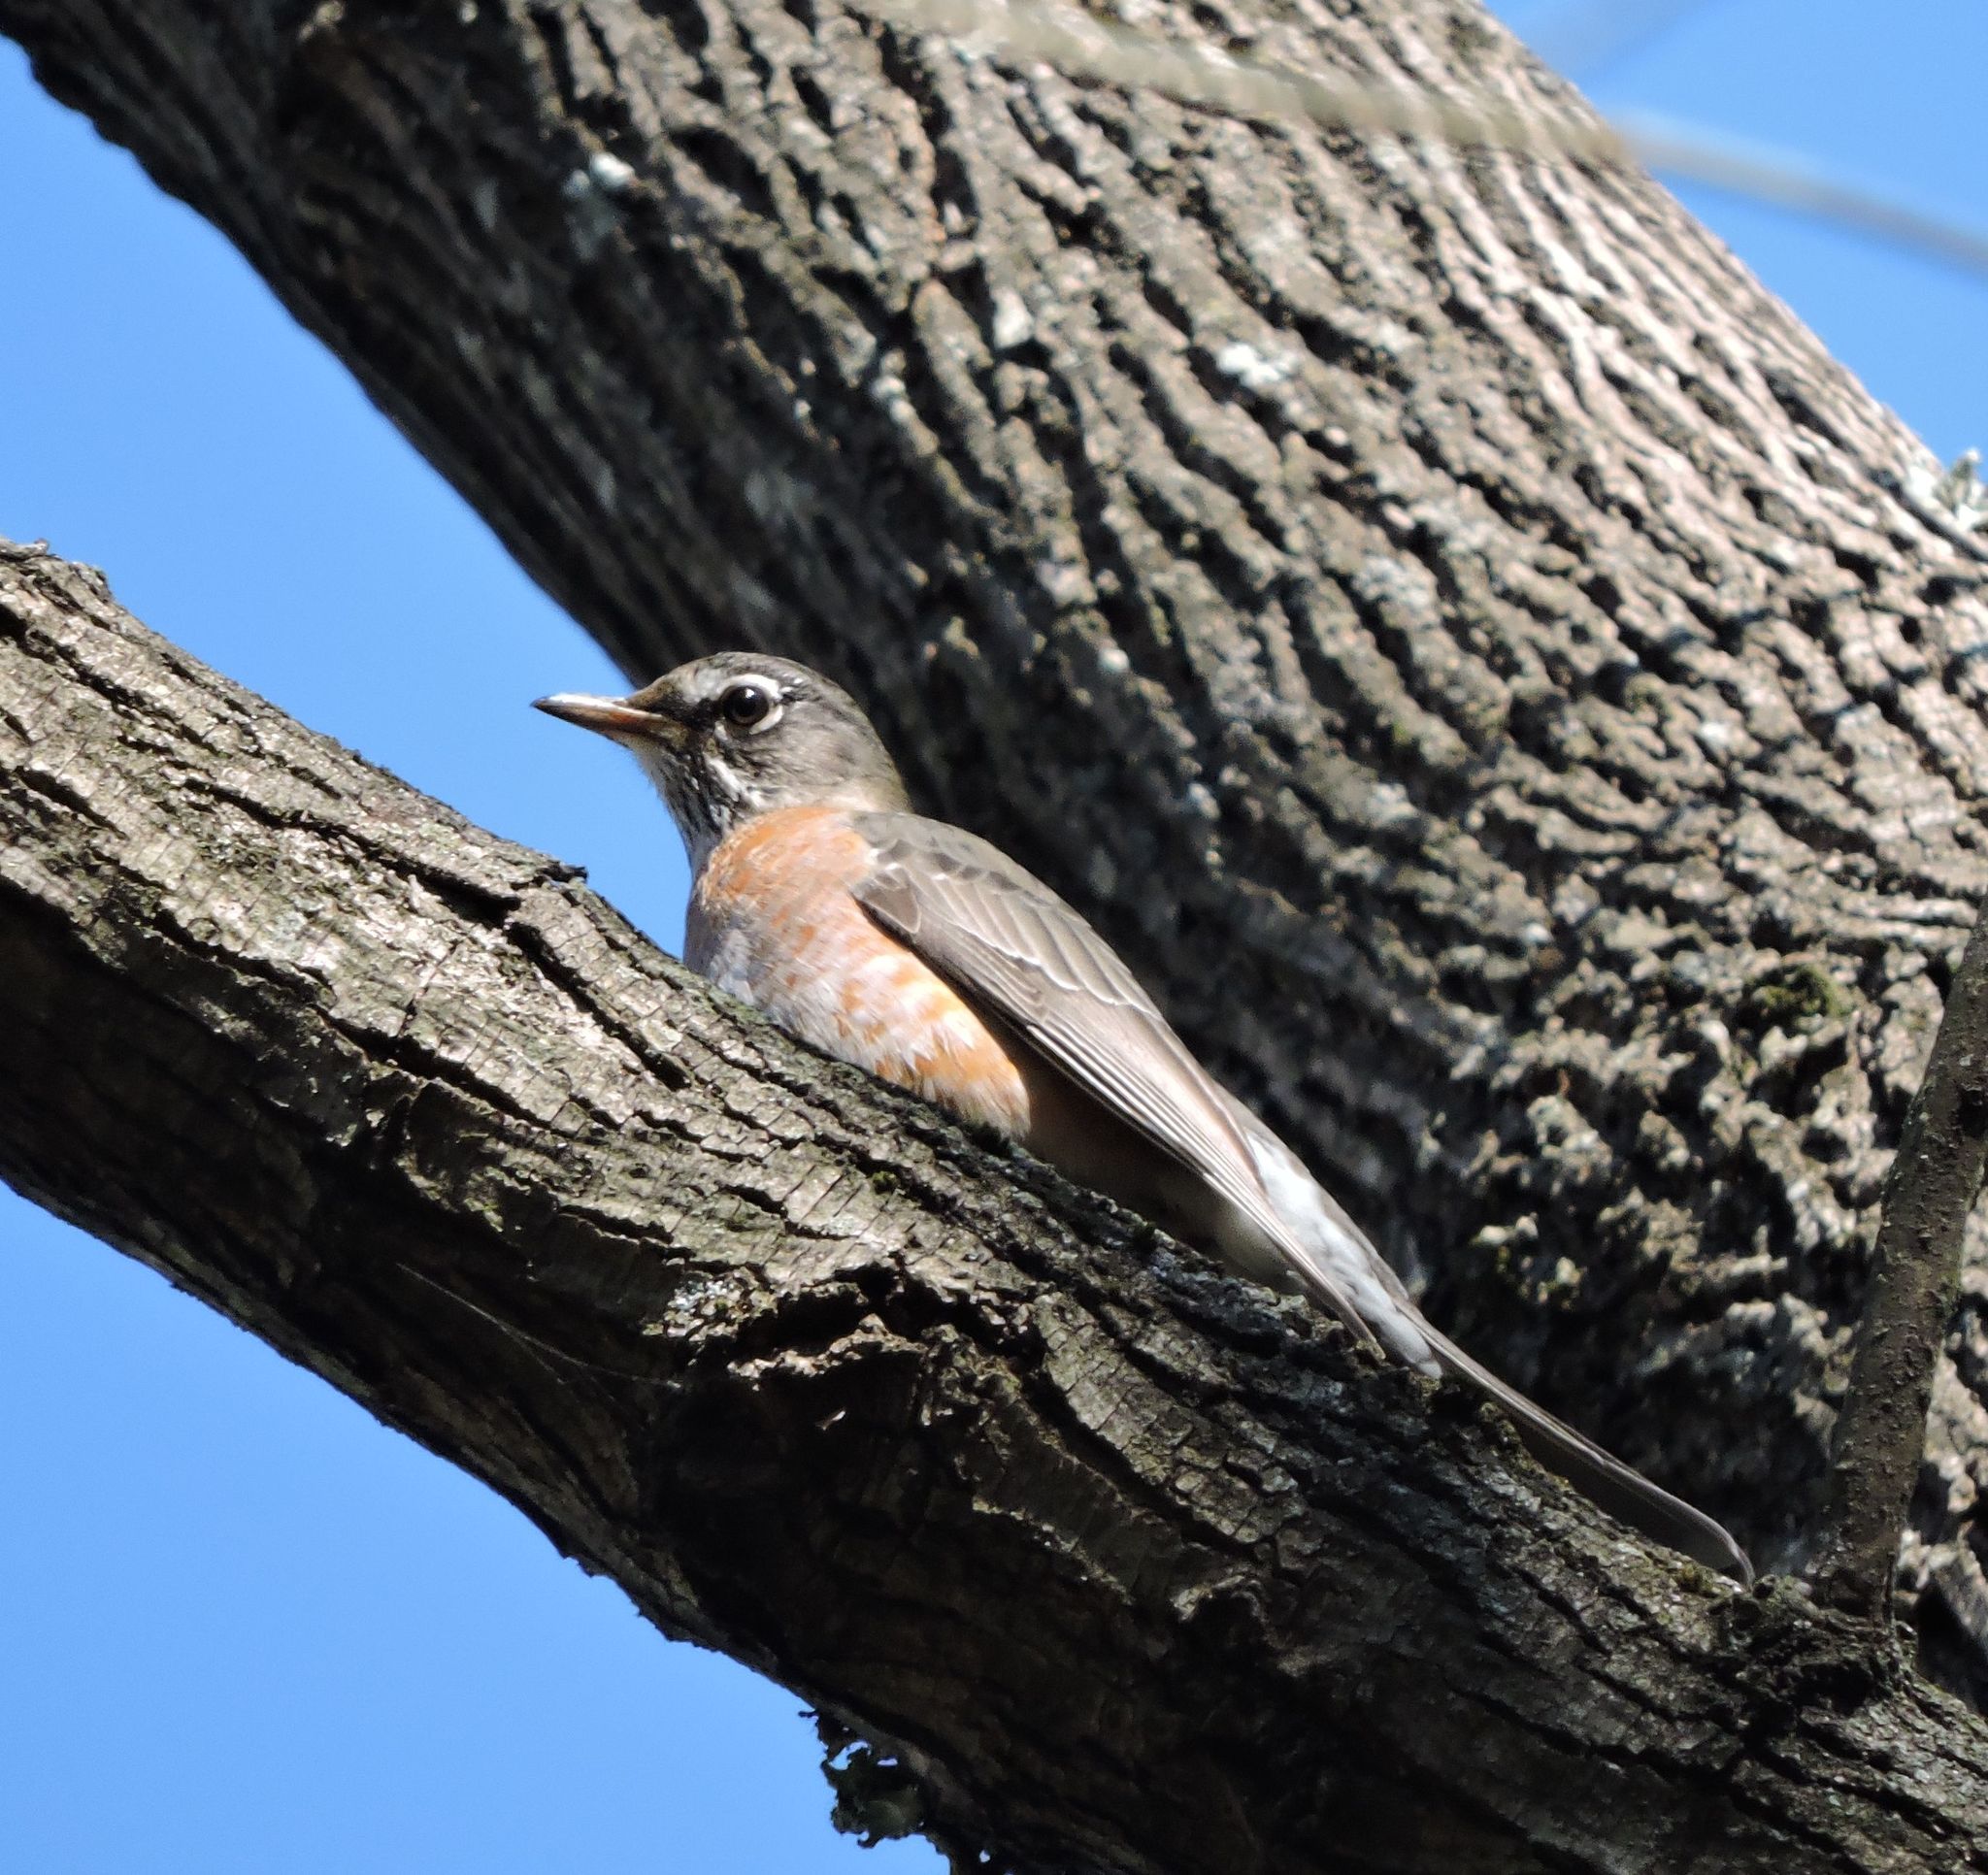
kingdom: Animalia
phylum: Chordata
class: Aves
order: Passeriformes
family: Turdidae
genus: Turdus
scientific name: Turdus migratorius
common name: American robin
